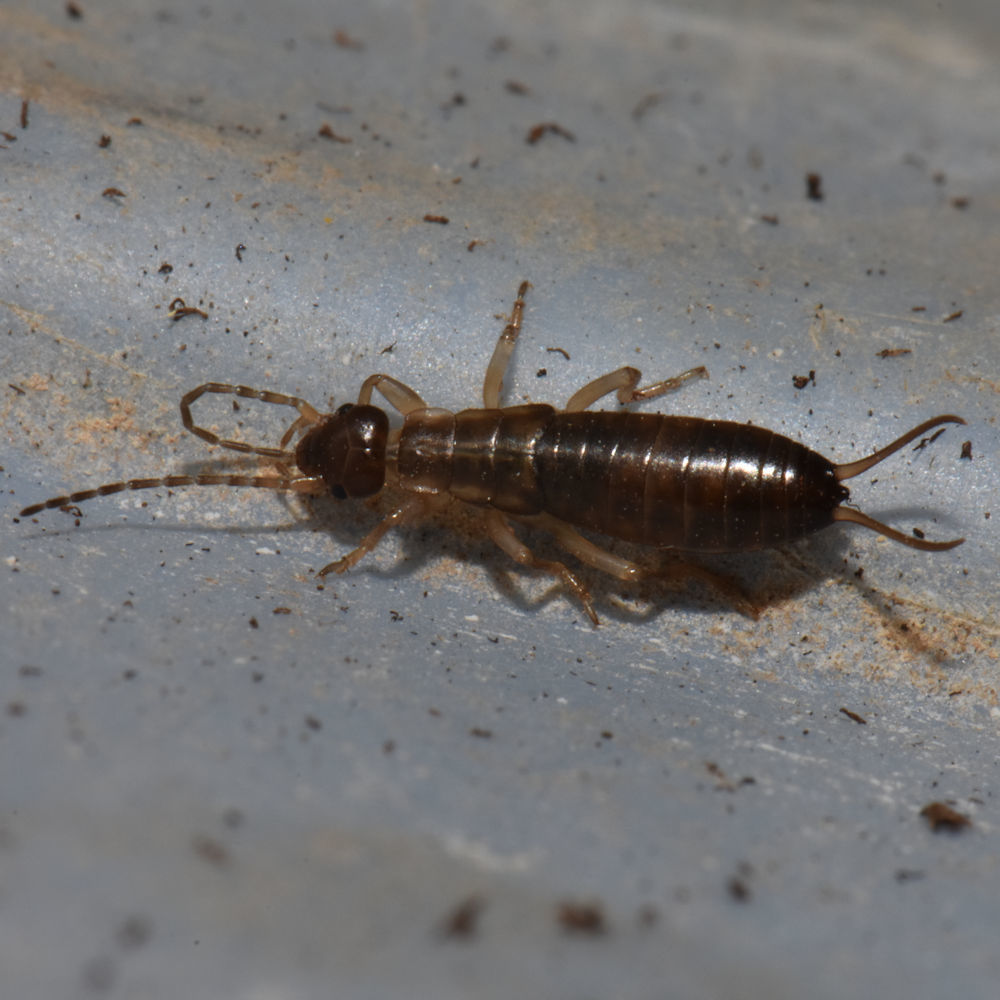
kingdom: Animalia
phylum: Arthropoda
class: Insecta
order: Dermaptera
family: Forficulidae
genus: Forficula
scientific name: Forficula
